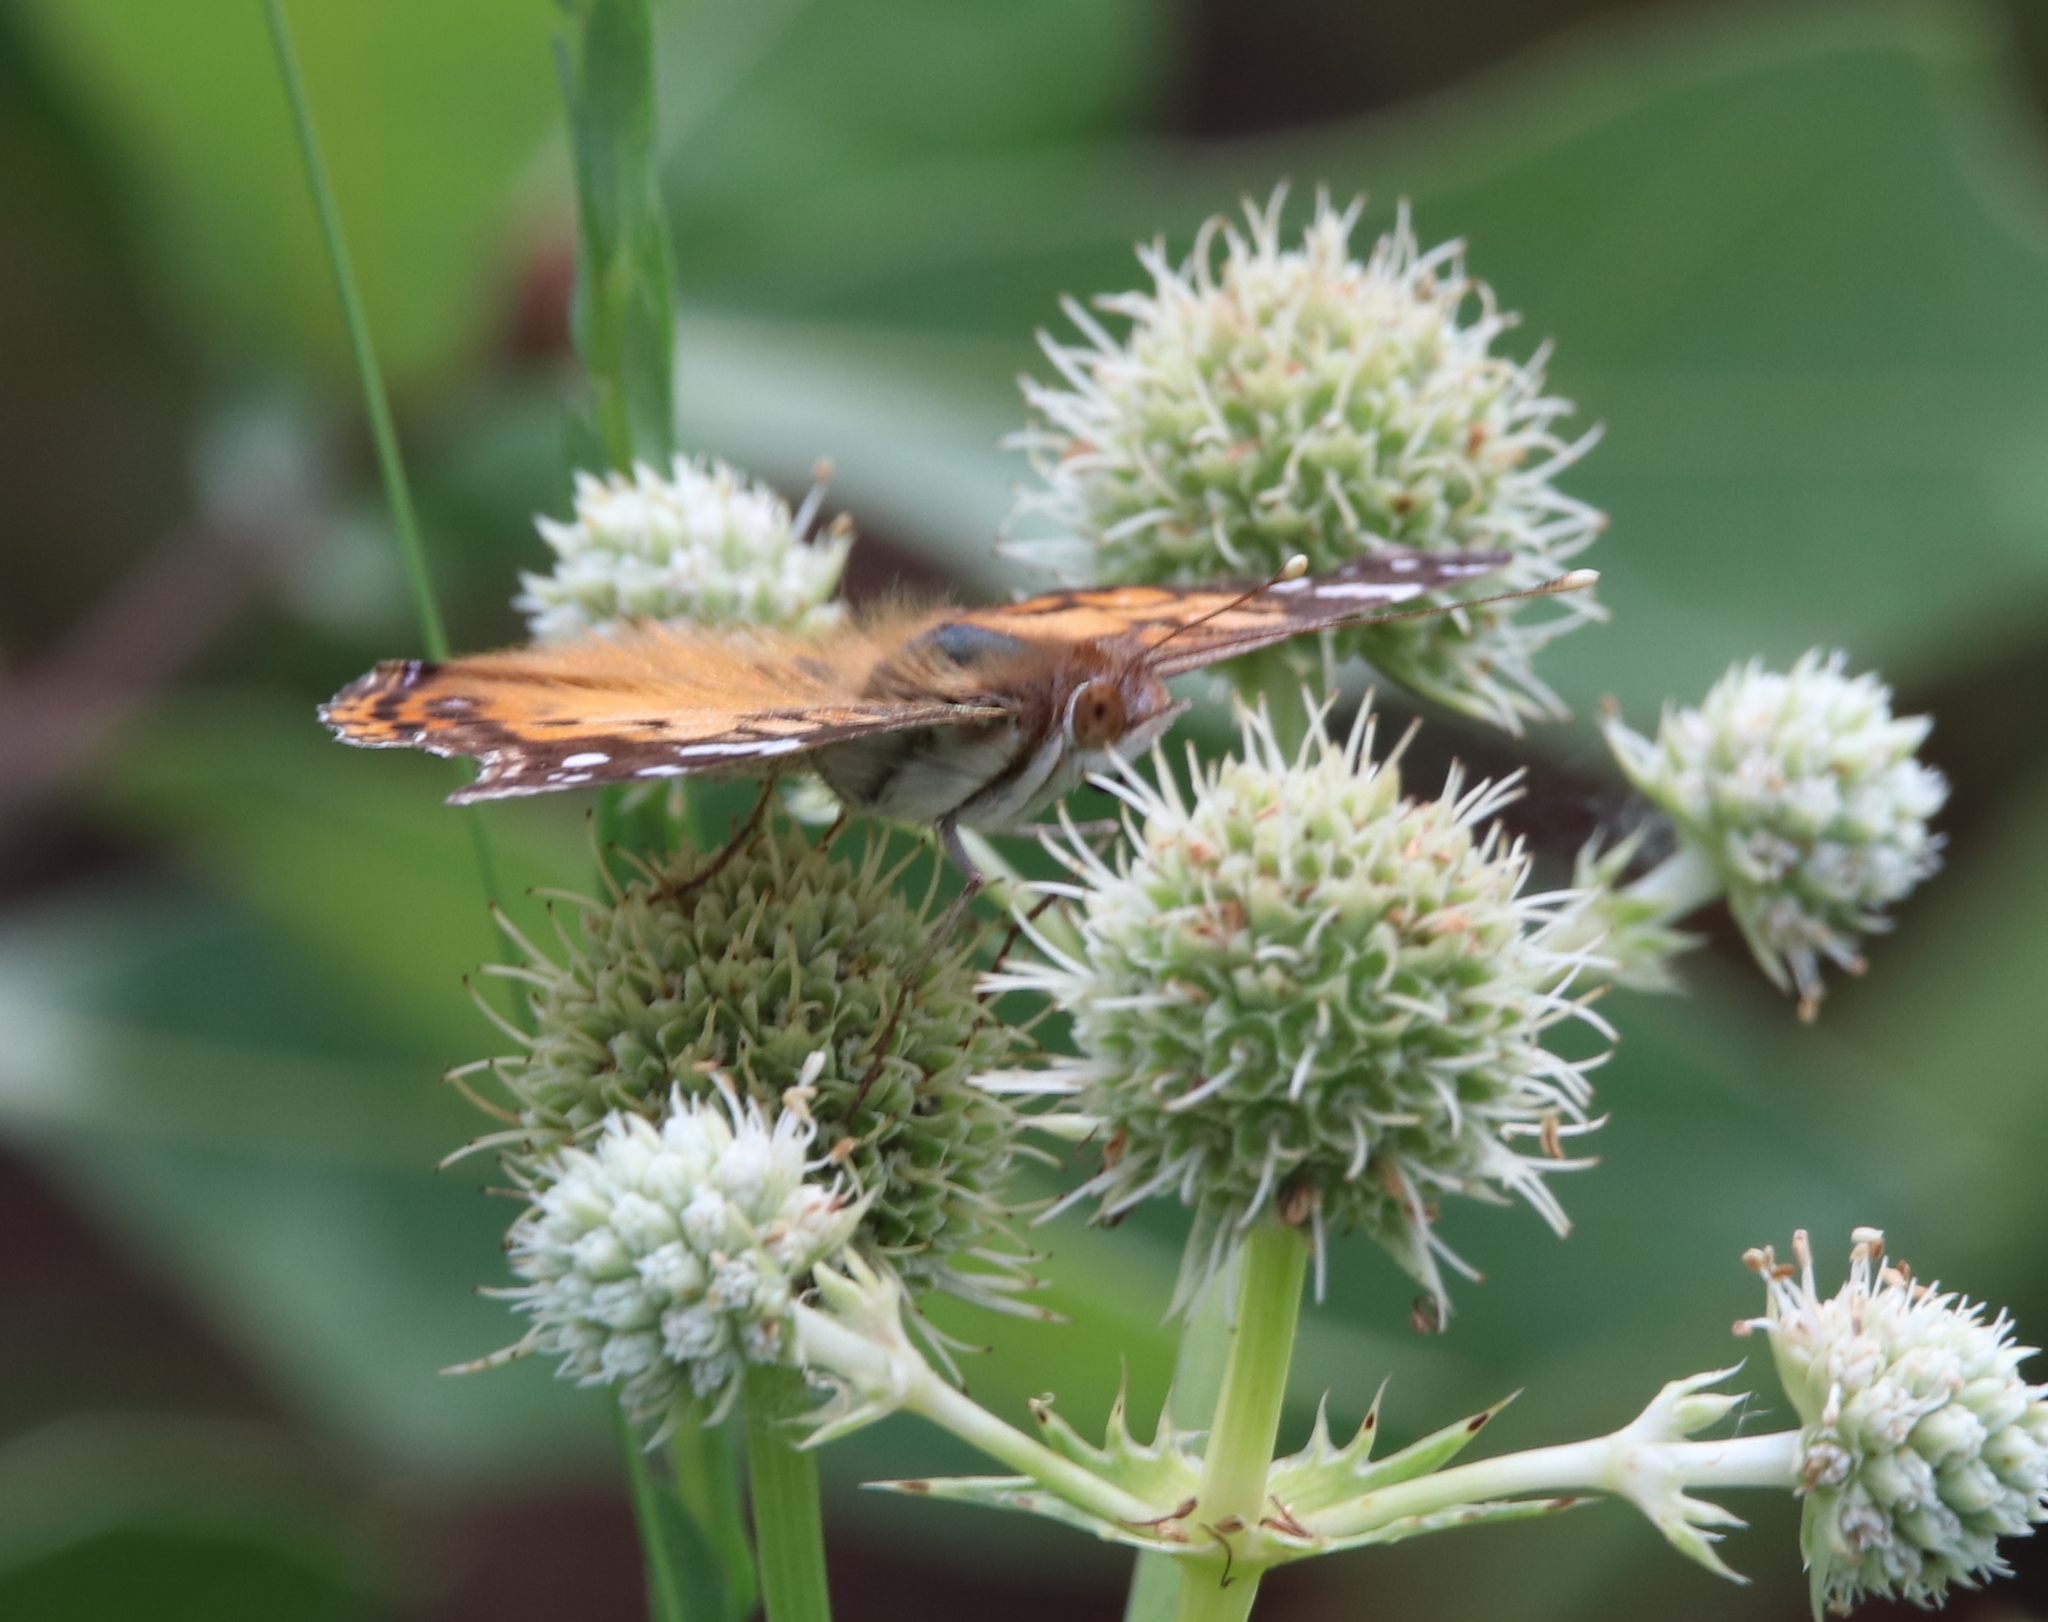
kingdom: Animalia
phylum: Arthropoda
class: Insecta
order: Lepidoptera
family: Nymphalidae
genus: Vanessa
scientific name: Vanessa virginiensis
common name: American lady
